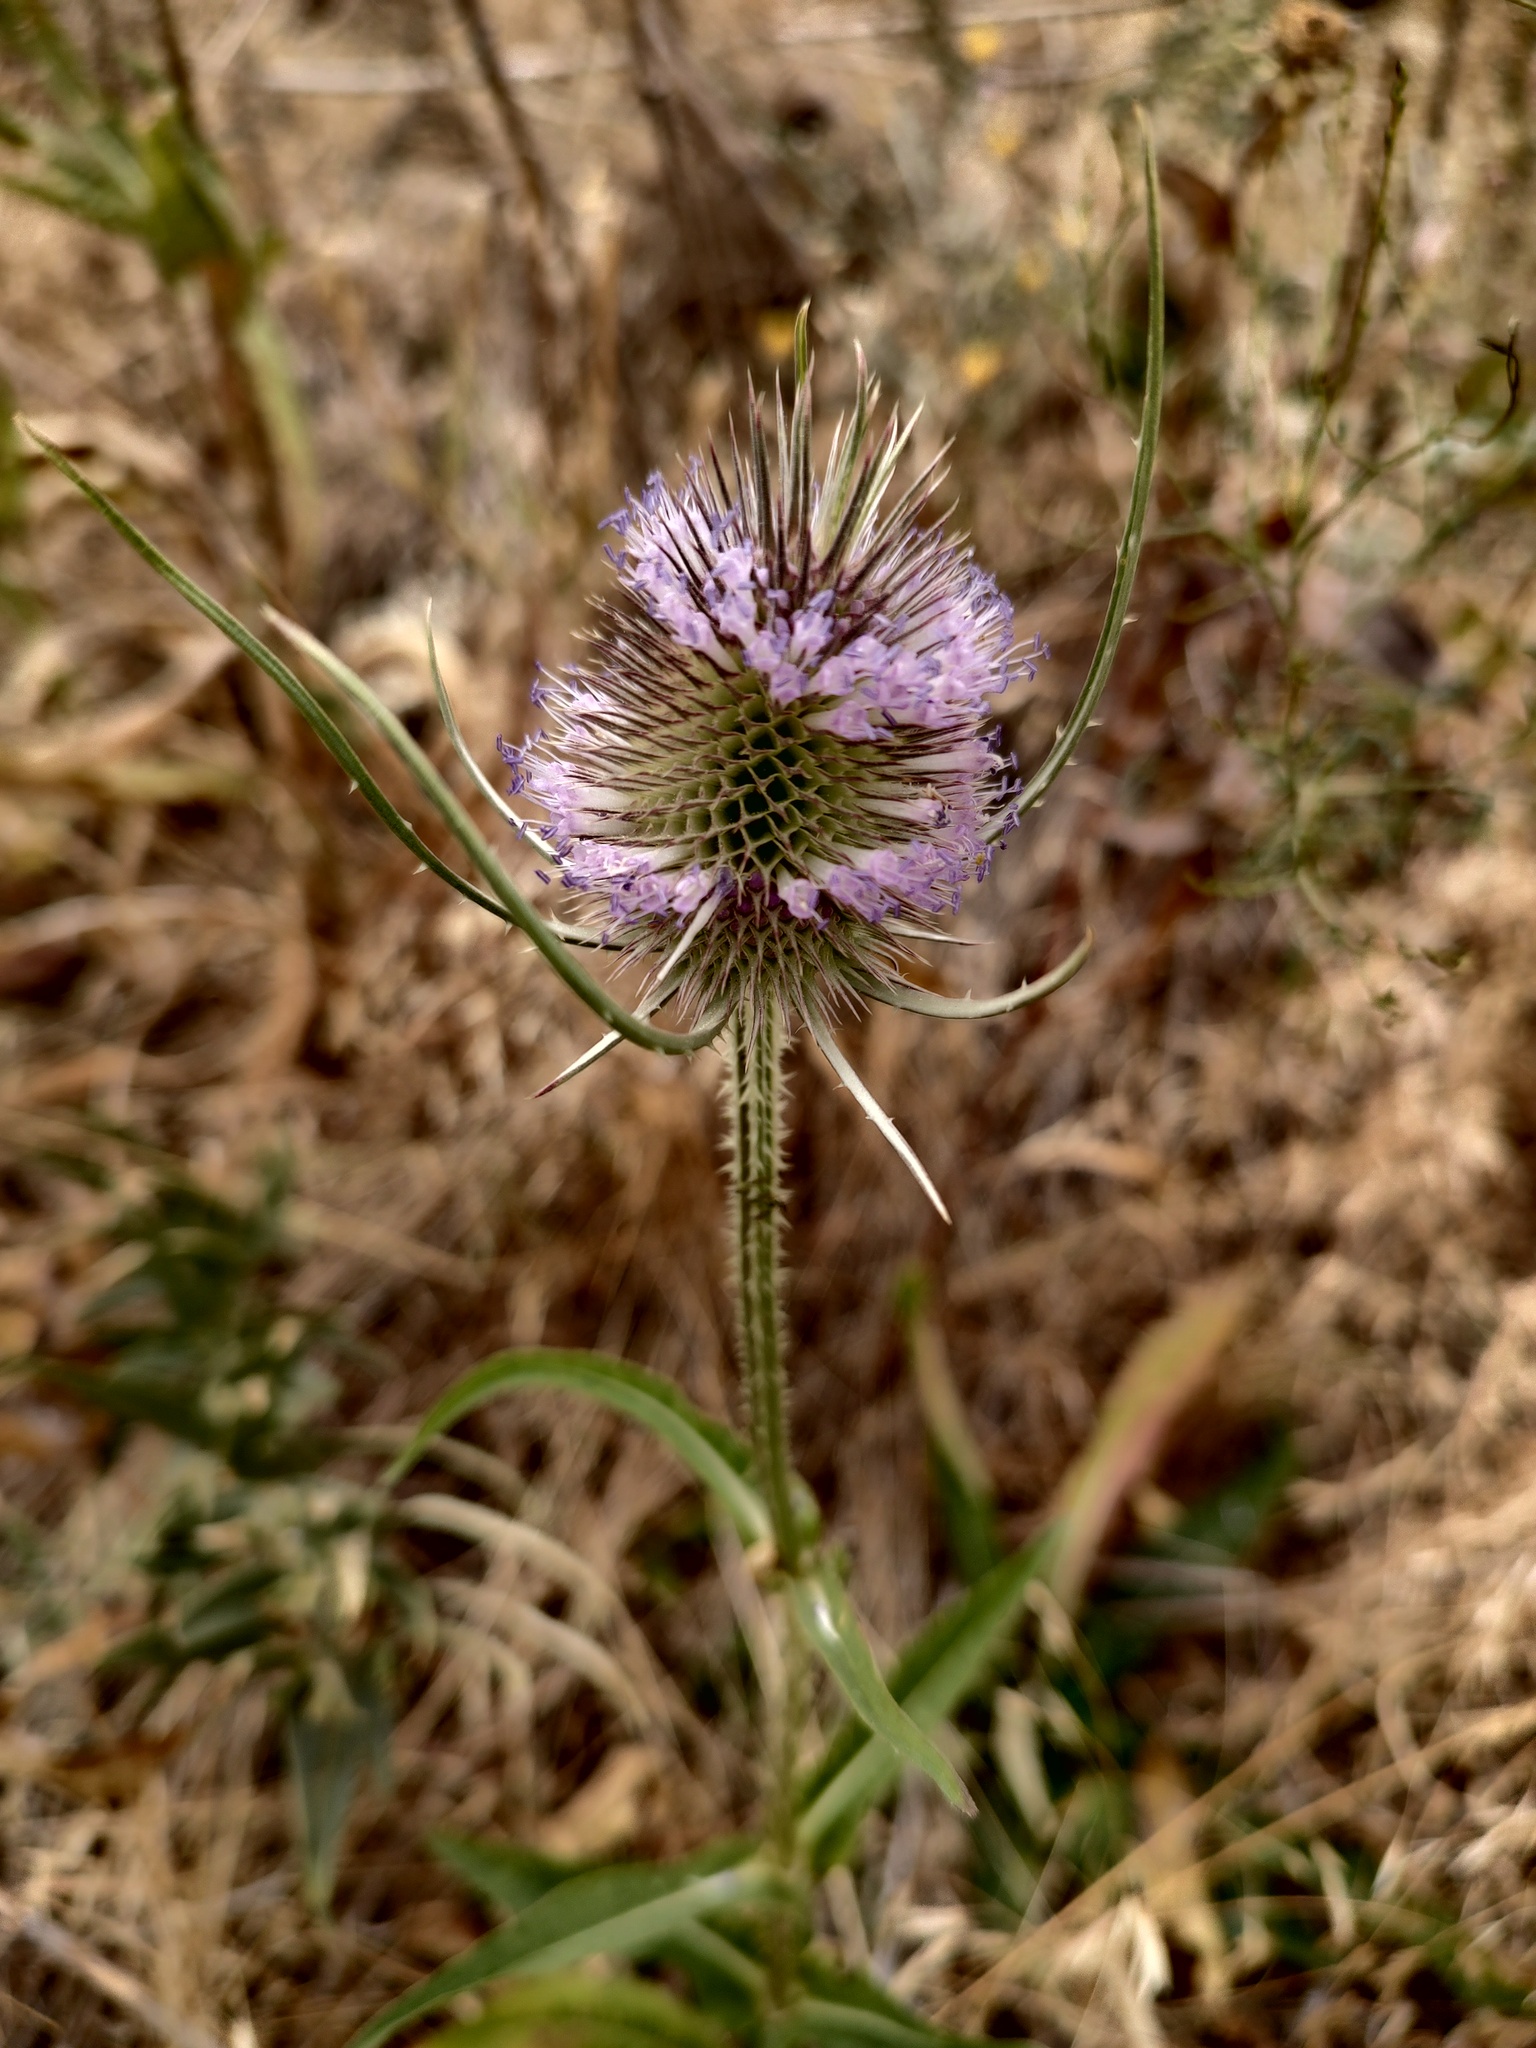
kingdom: Plantae
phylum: Tracheophyta
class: Magnoliopsida
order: Dipsacales
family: Caprifoliaceae
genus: Dipsacus
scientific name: Dipsacus fullonum
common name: Teasel
